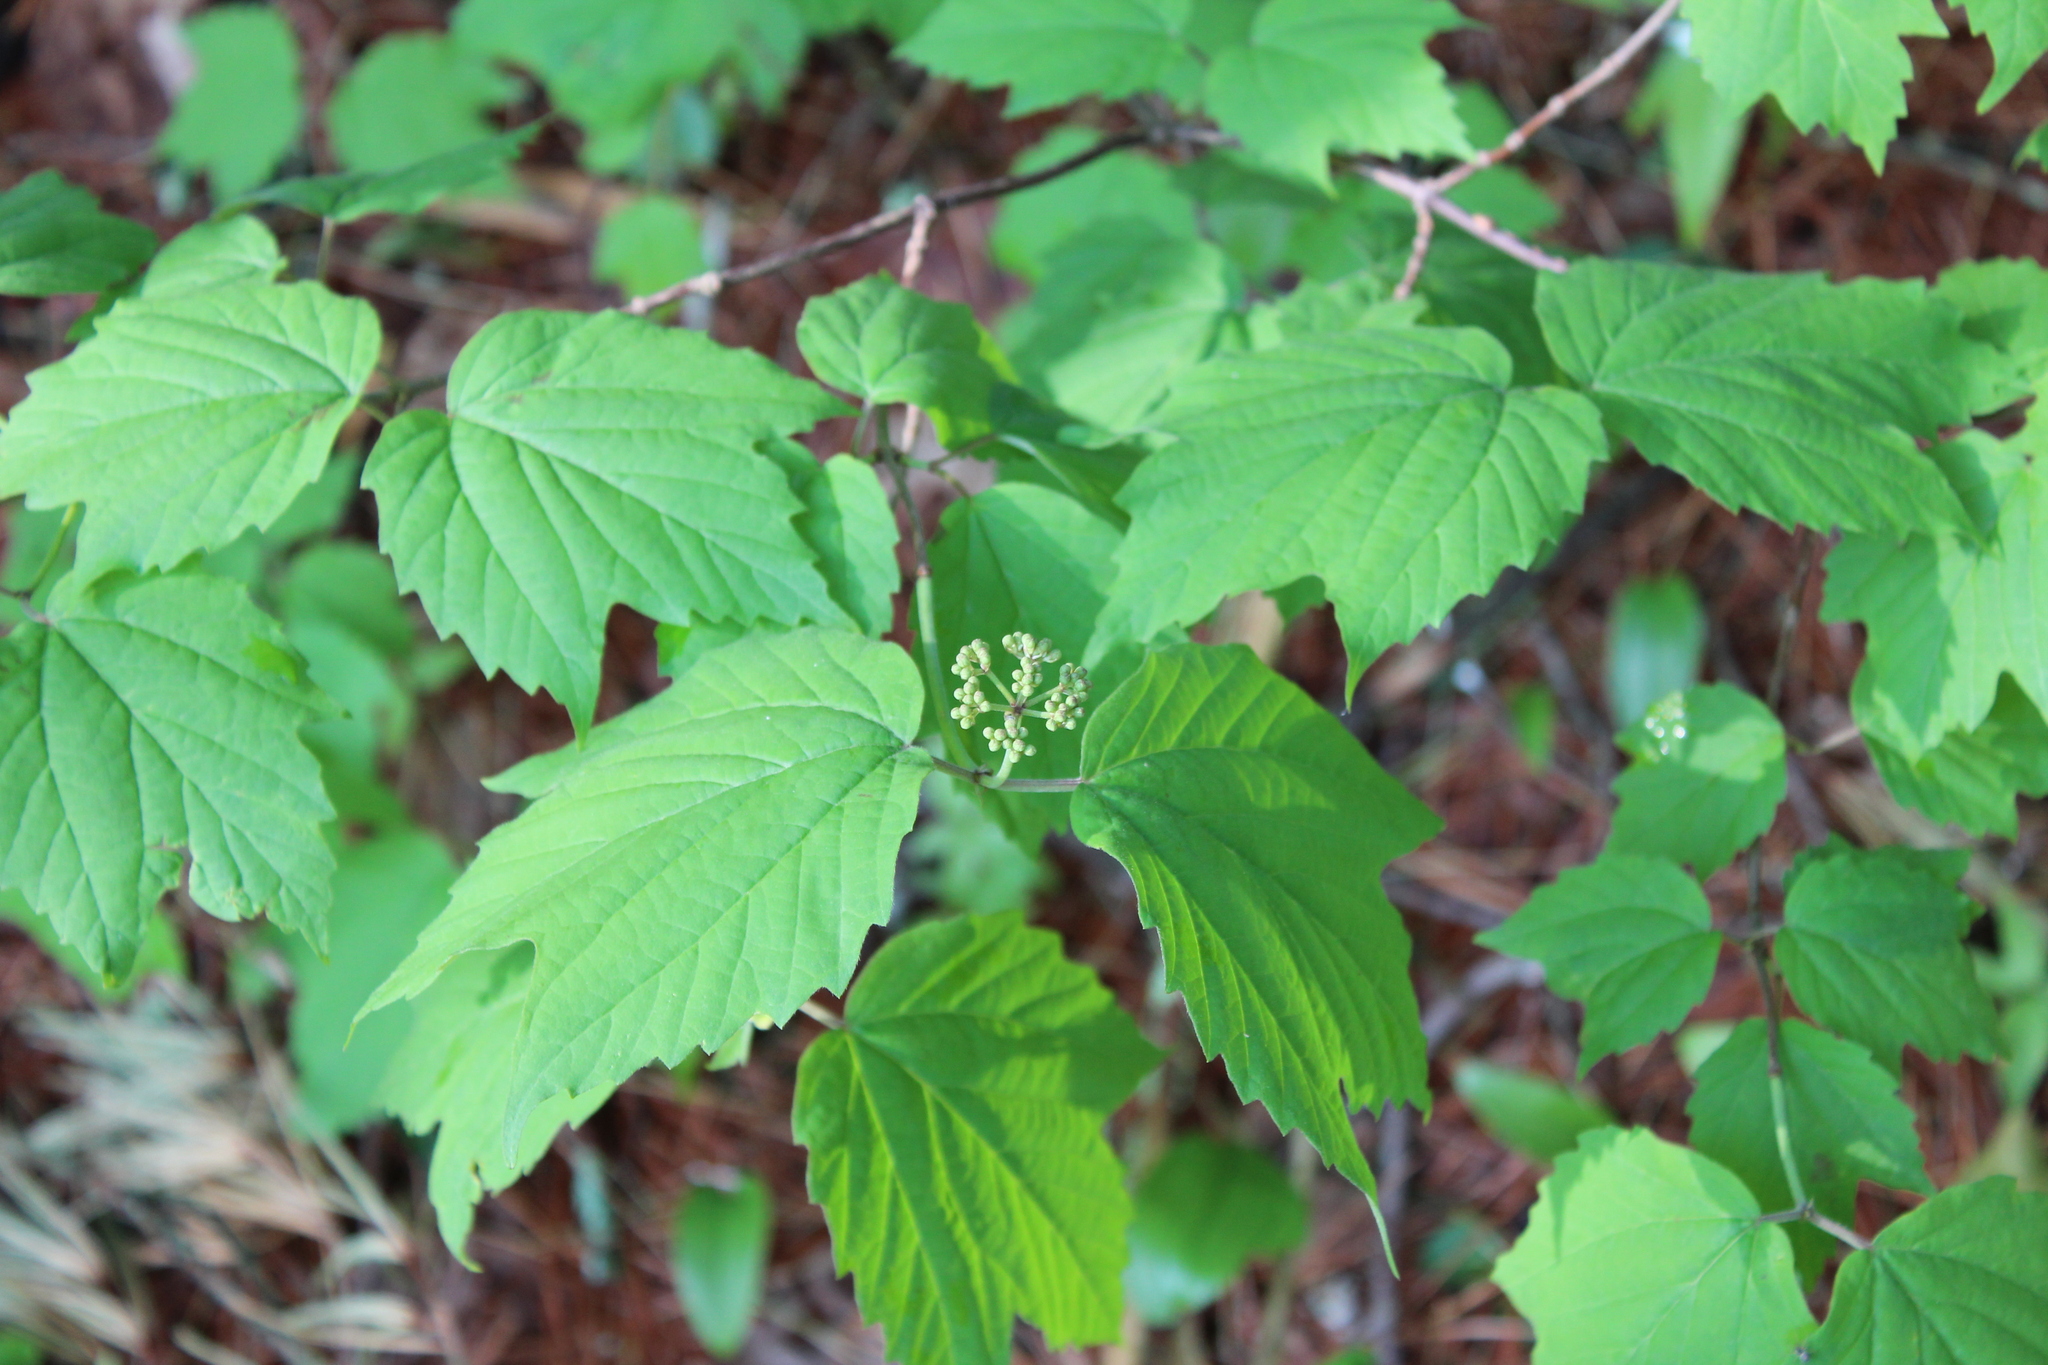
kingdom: Plantae
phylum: Tracheophyta
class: Magnoliopsida
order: Dipsacales
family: Viburnaceae
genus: Viburnum
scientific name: Viburnum acerifolium
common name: Dockmackie
